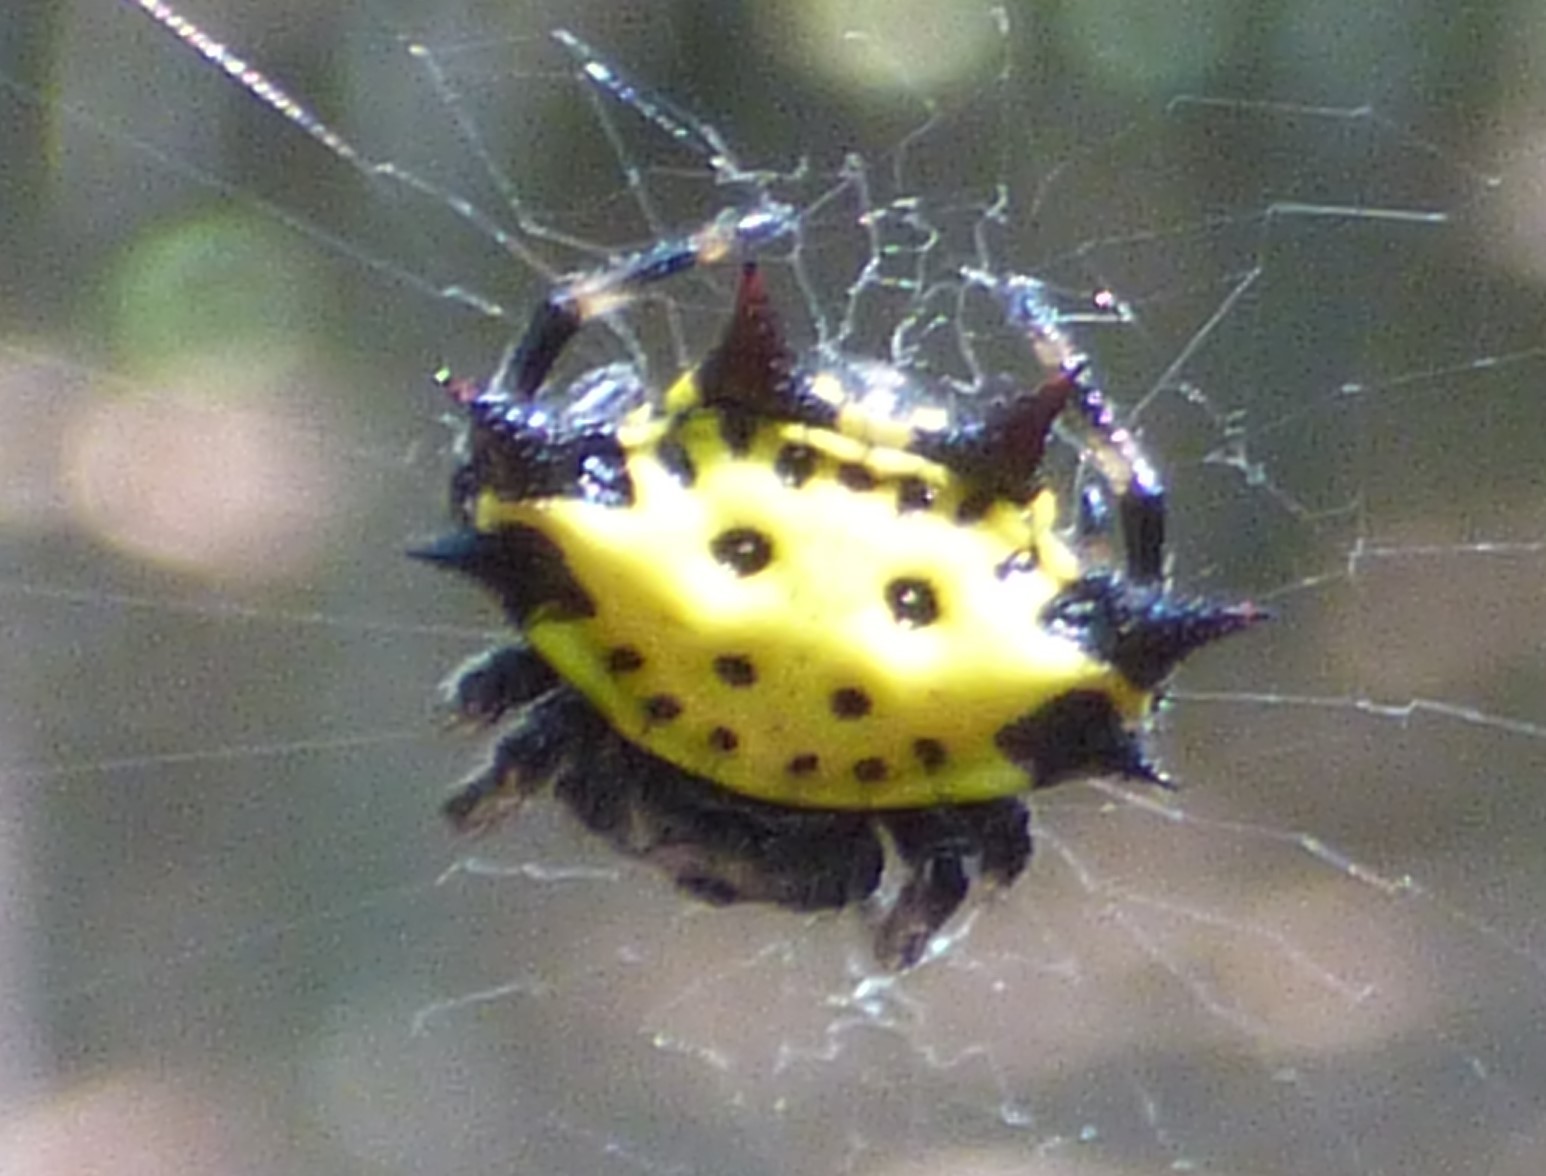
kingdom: Animalia
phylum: Arthropoda
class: Arachnida
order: Araneae
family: Araneidae
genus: Gasteracantha
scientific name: Gasteracantha cancriformis
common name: Orb weavers
